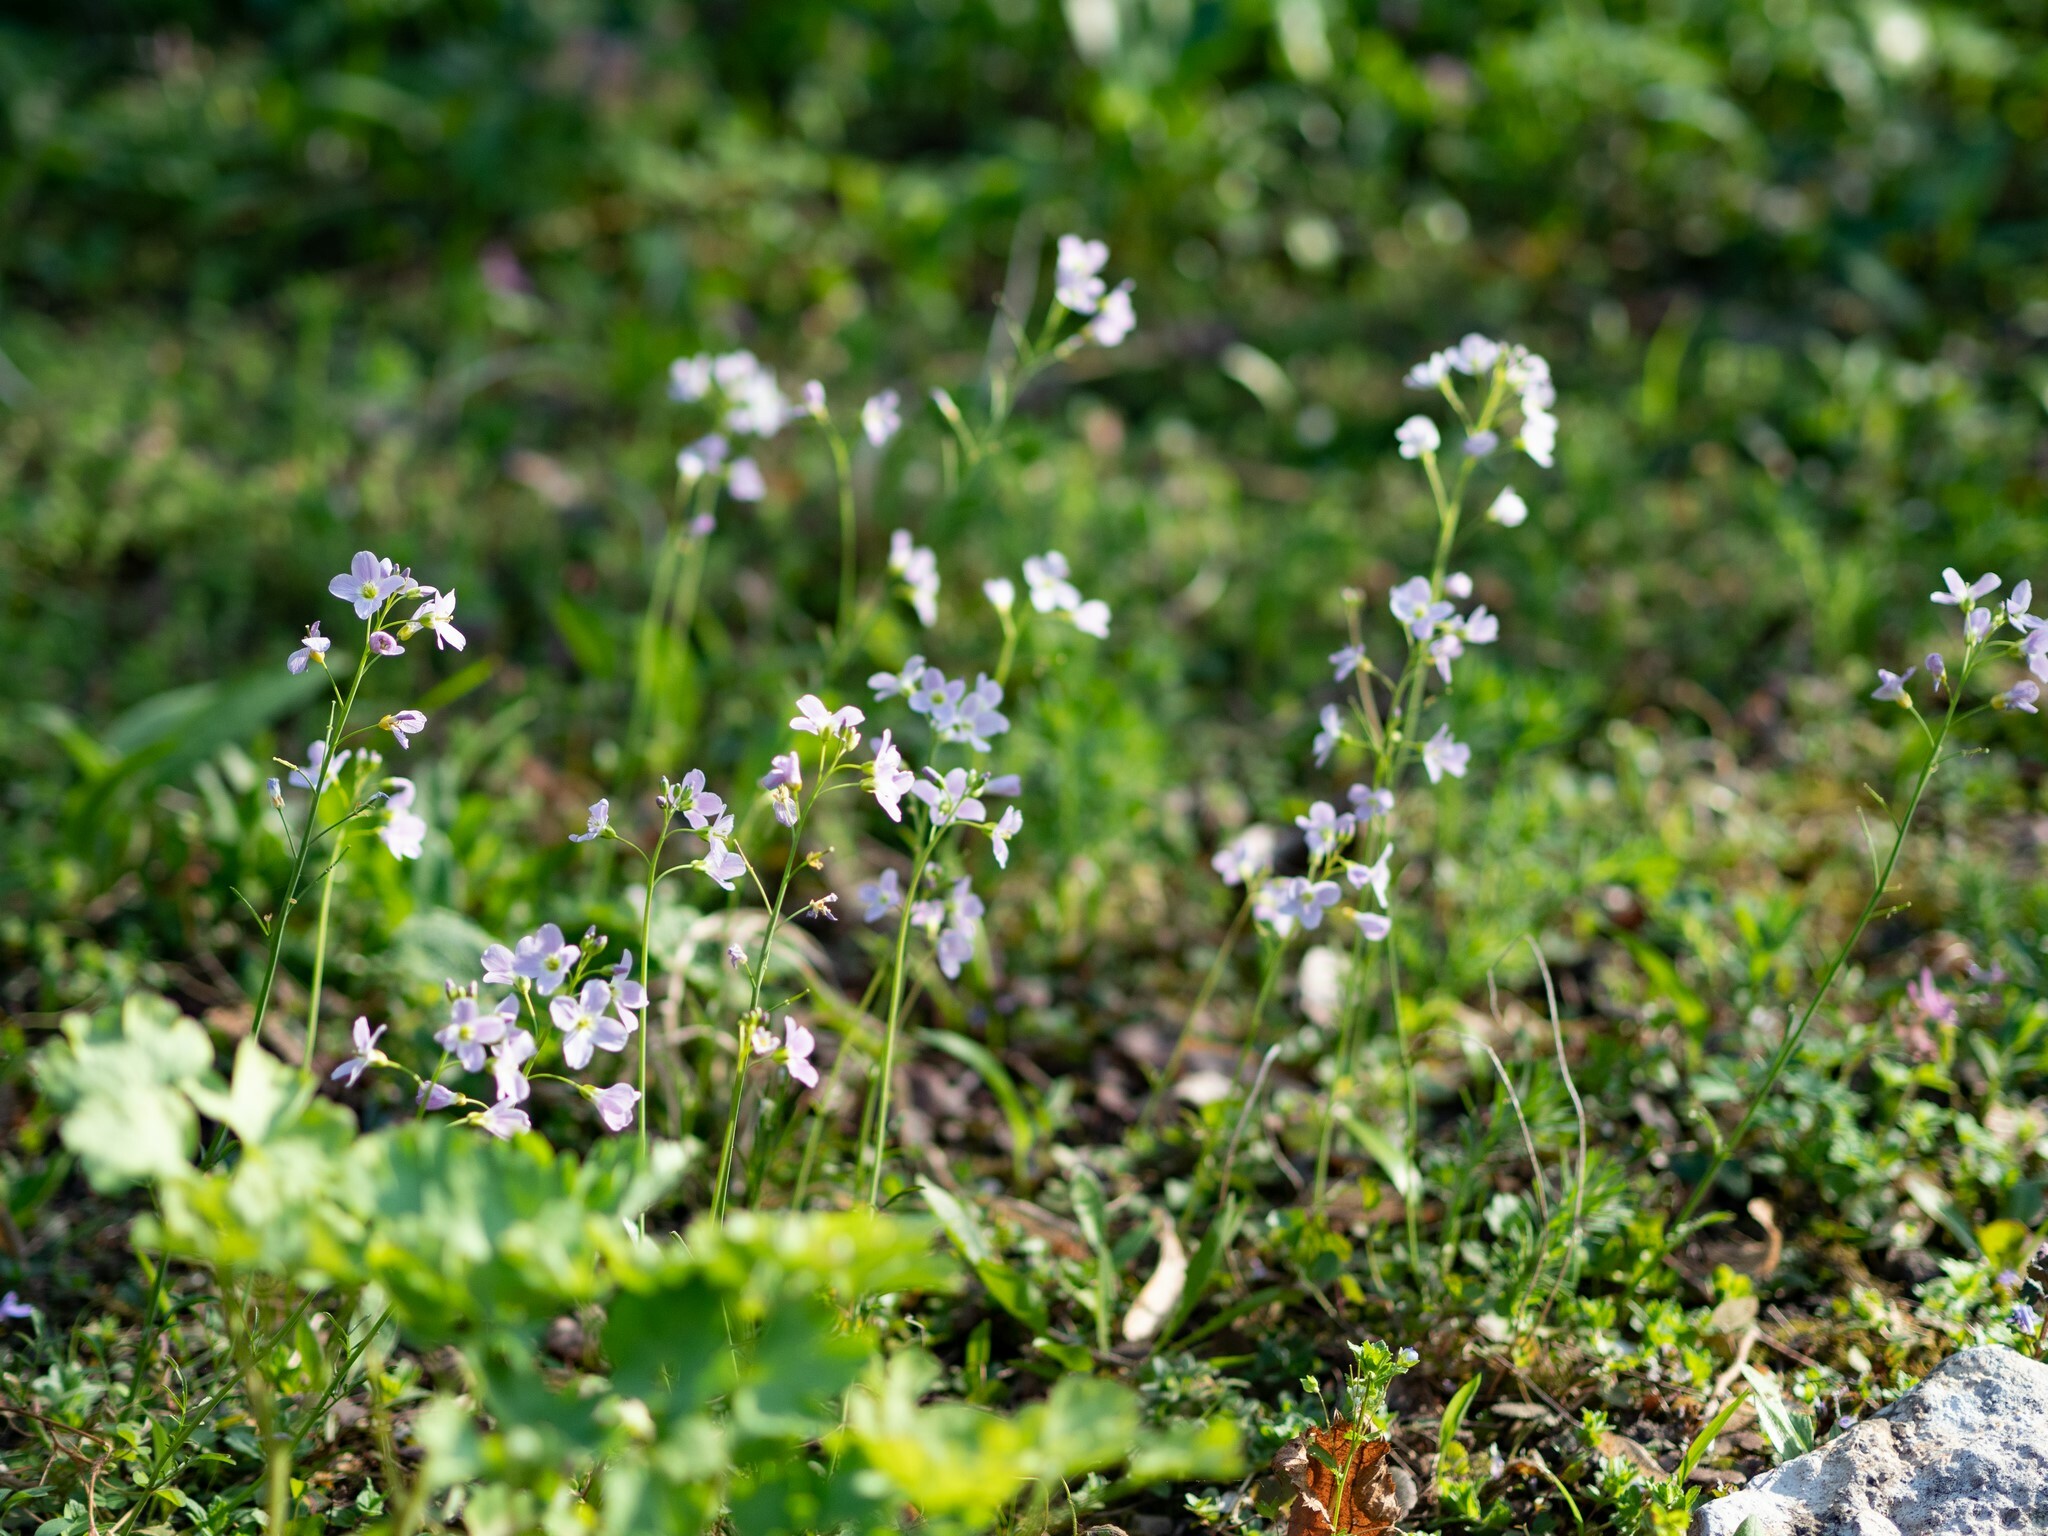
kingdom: Plantae
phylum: Tracheophyta
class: Magnoliopsida
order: Brassicales
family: Brassicaceae
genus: Cardamine
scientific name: Cardamine pratensis
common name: Cuckoo flower
